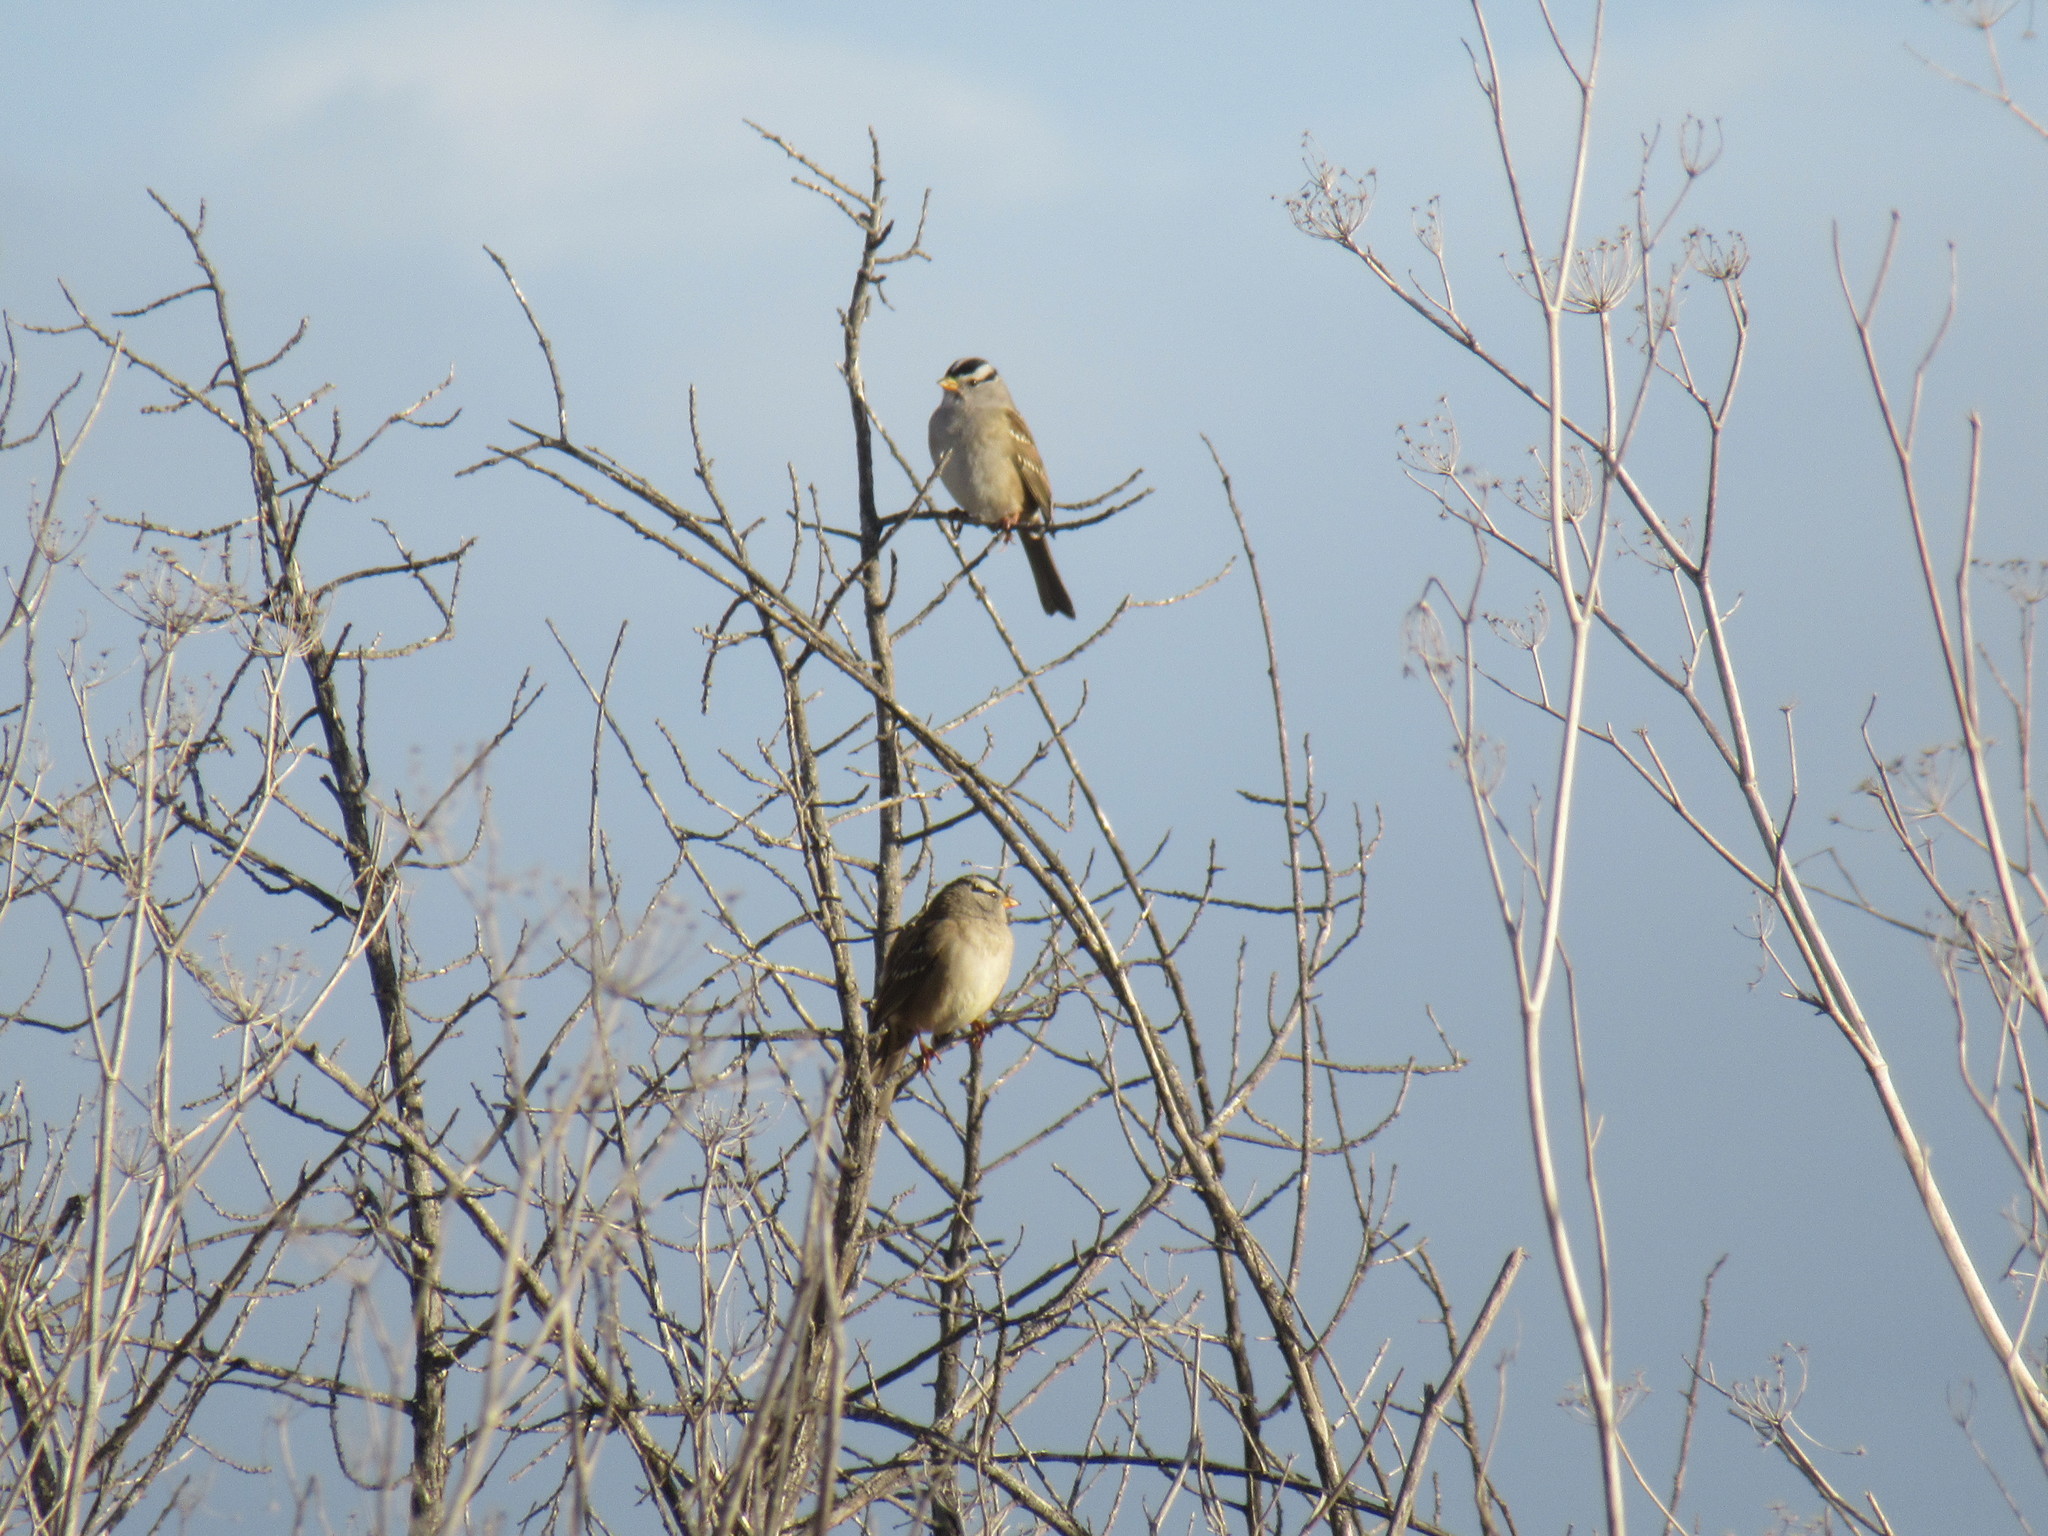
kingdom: Animalia
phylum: Chordata
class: Aves
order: Passeriformes
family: Passerellidae
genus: Zonotrichia
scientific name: Zonotrichia leucophrys
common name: White-crowned sparrow
